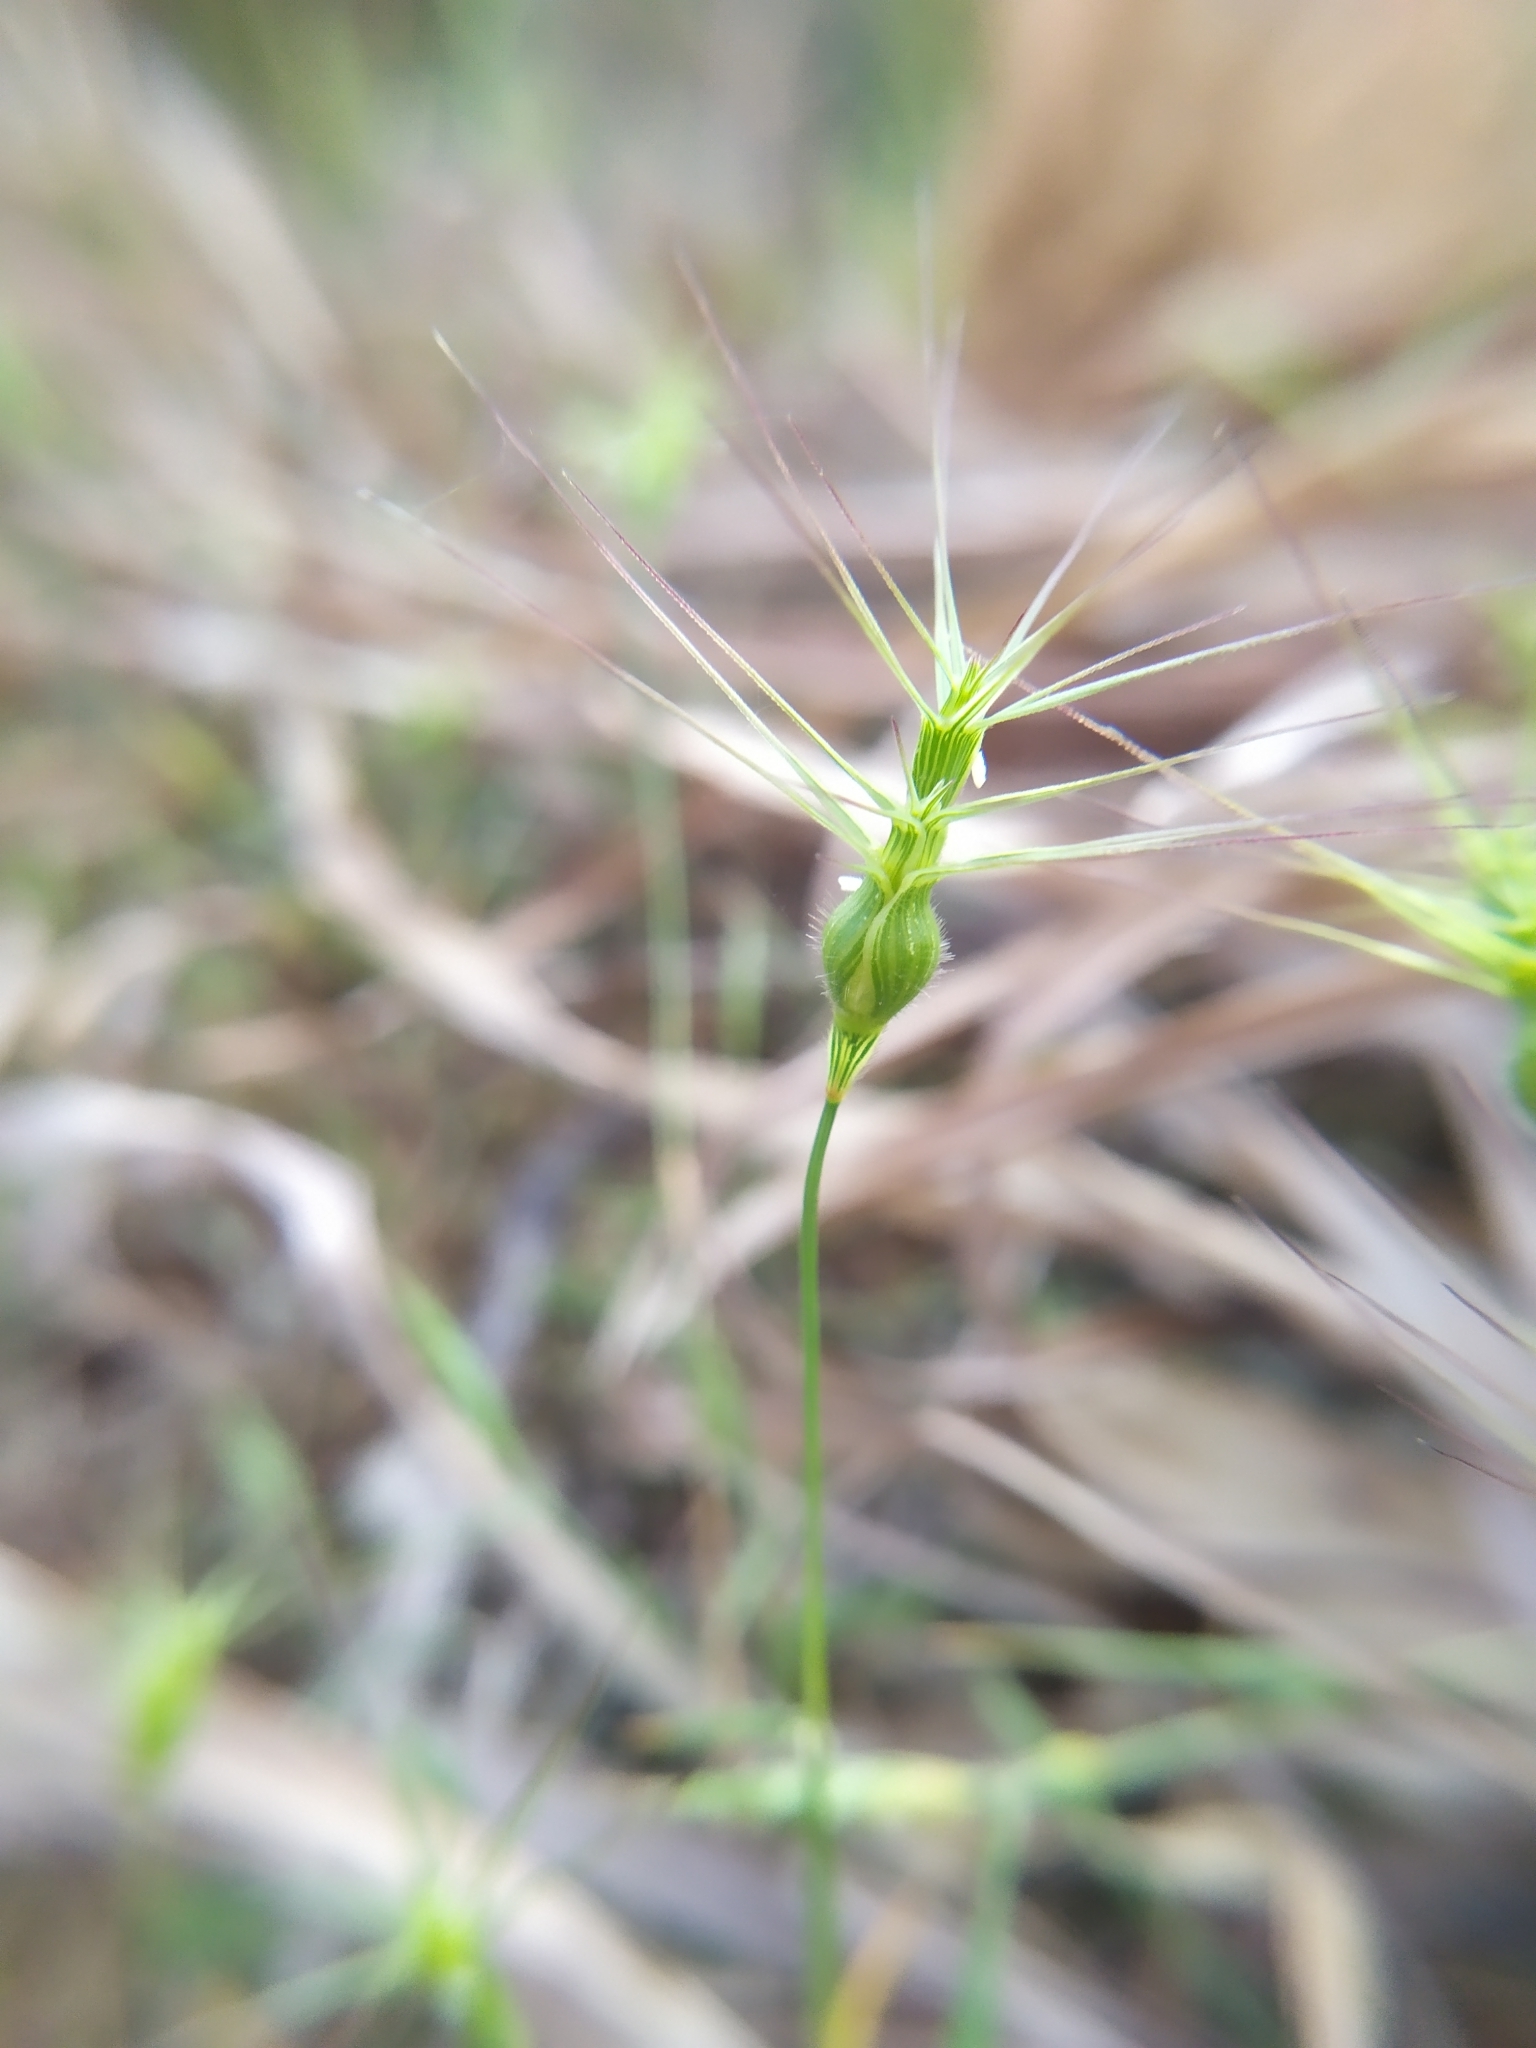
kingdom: Plantae
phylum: Tracheophyta
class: Liliopsida
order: Poales
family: Poaceae
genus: Aegilops
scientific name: Aegilops geniculata
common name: Ovate goat grass
